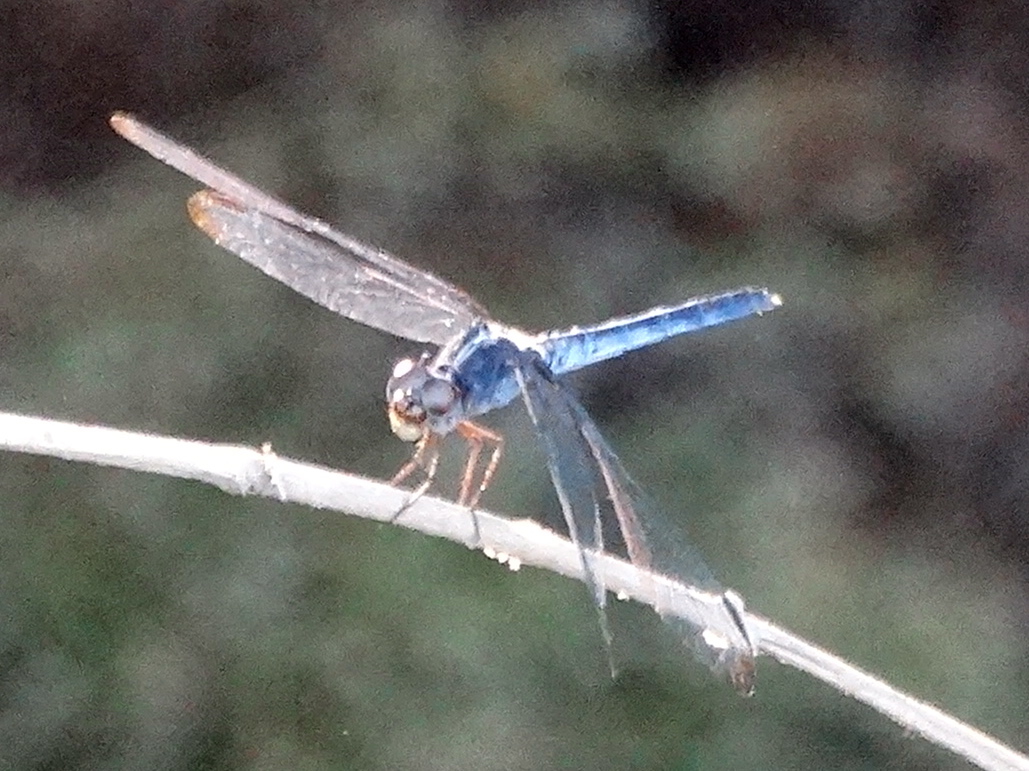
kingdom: Animalia
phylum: Arthropoda
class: Insecta
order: Odonata
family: Libellulidae
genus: Erythrodiplax
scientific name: Erythrodiplax
